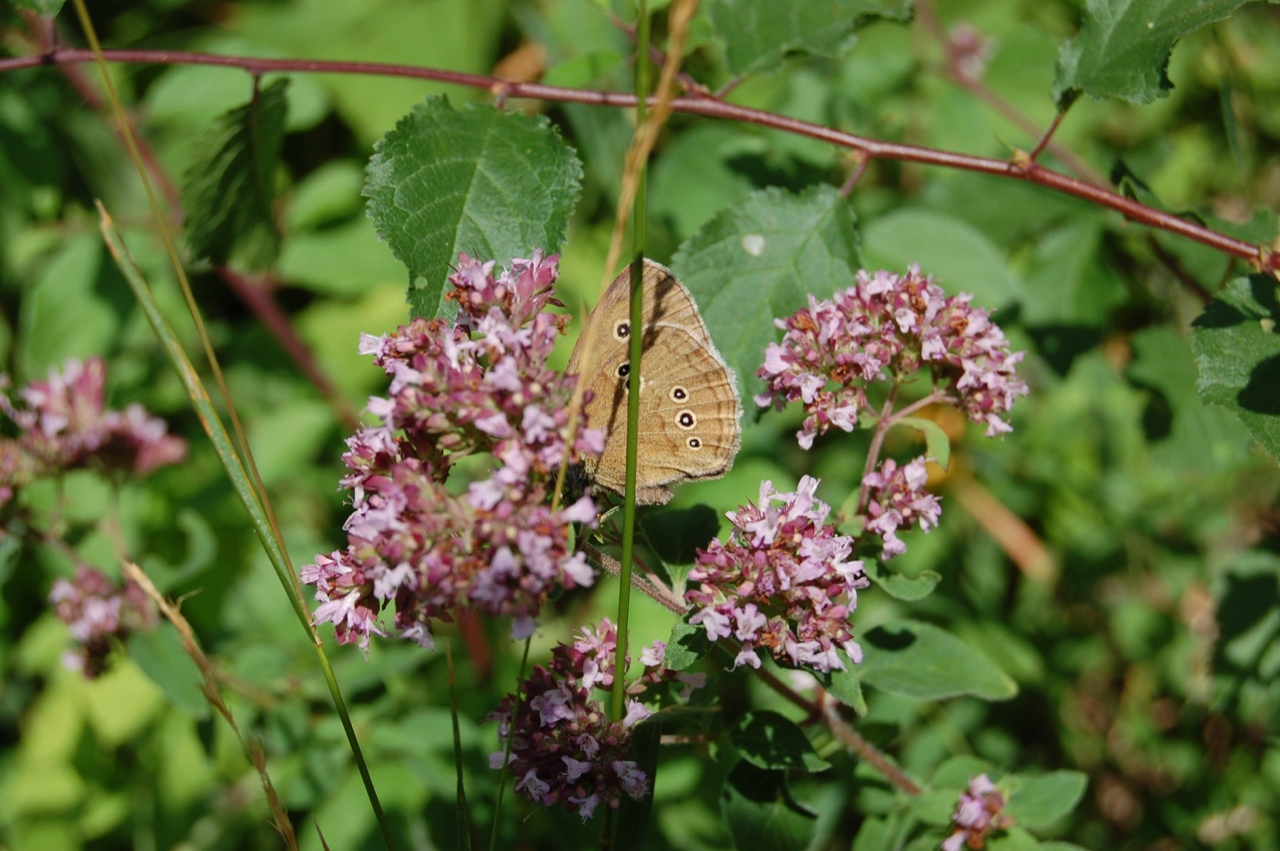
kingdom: Animalia
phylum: Arthropoda
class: Insecta
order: Lepidoptera
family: Nymphalidae
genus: Aphantopus
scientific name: Aphantopus hyperantus
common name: Ringlet
